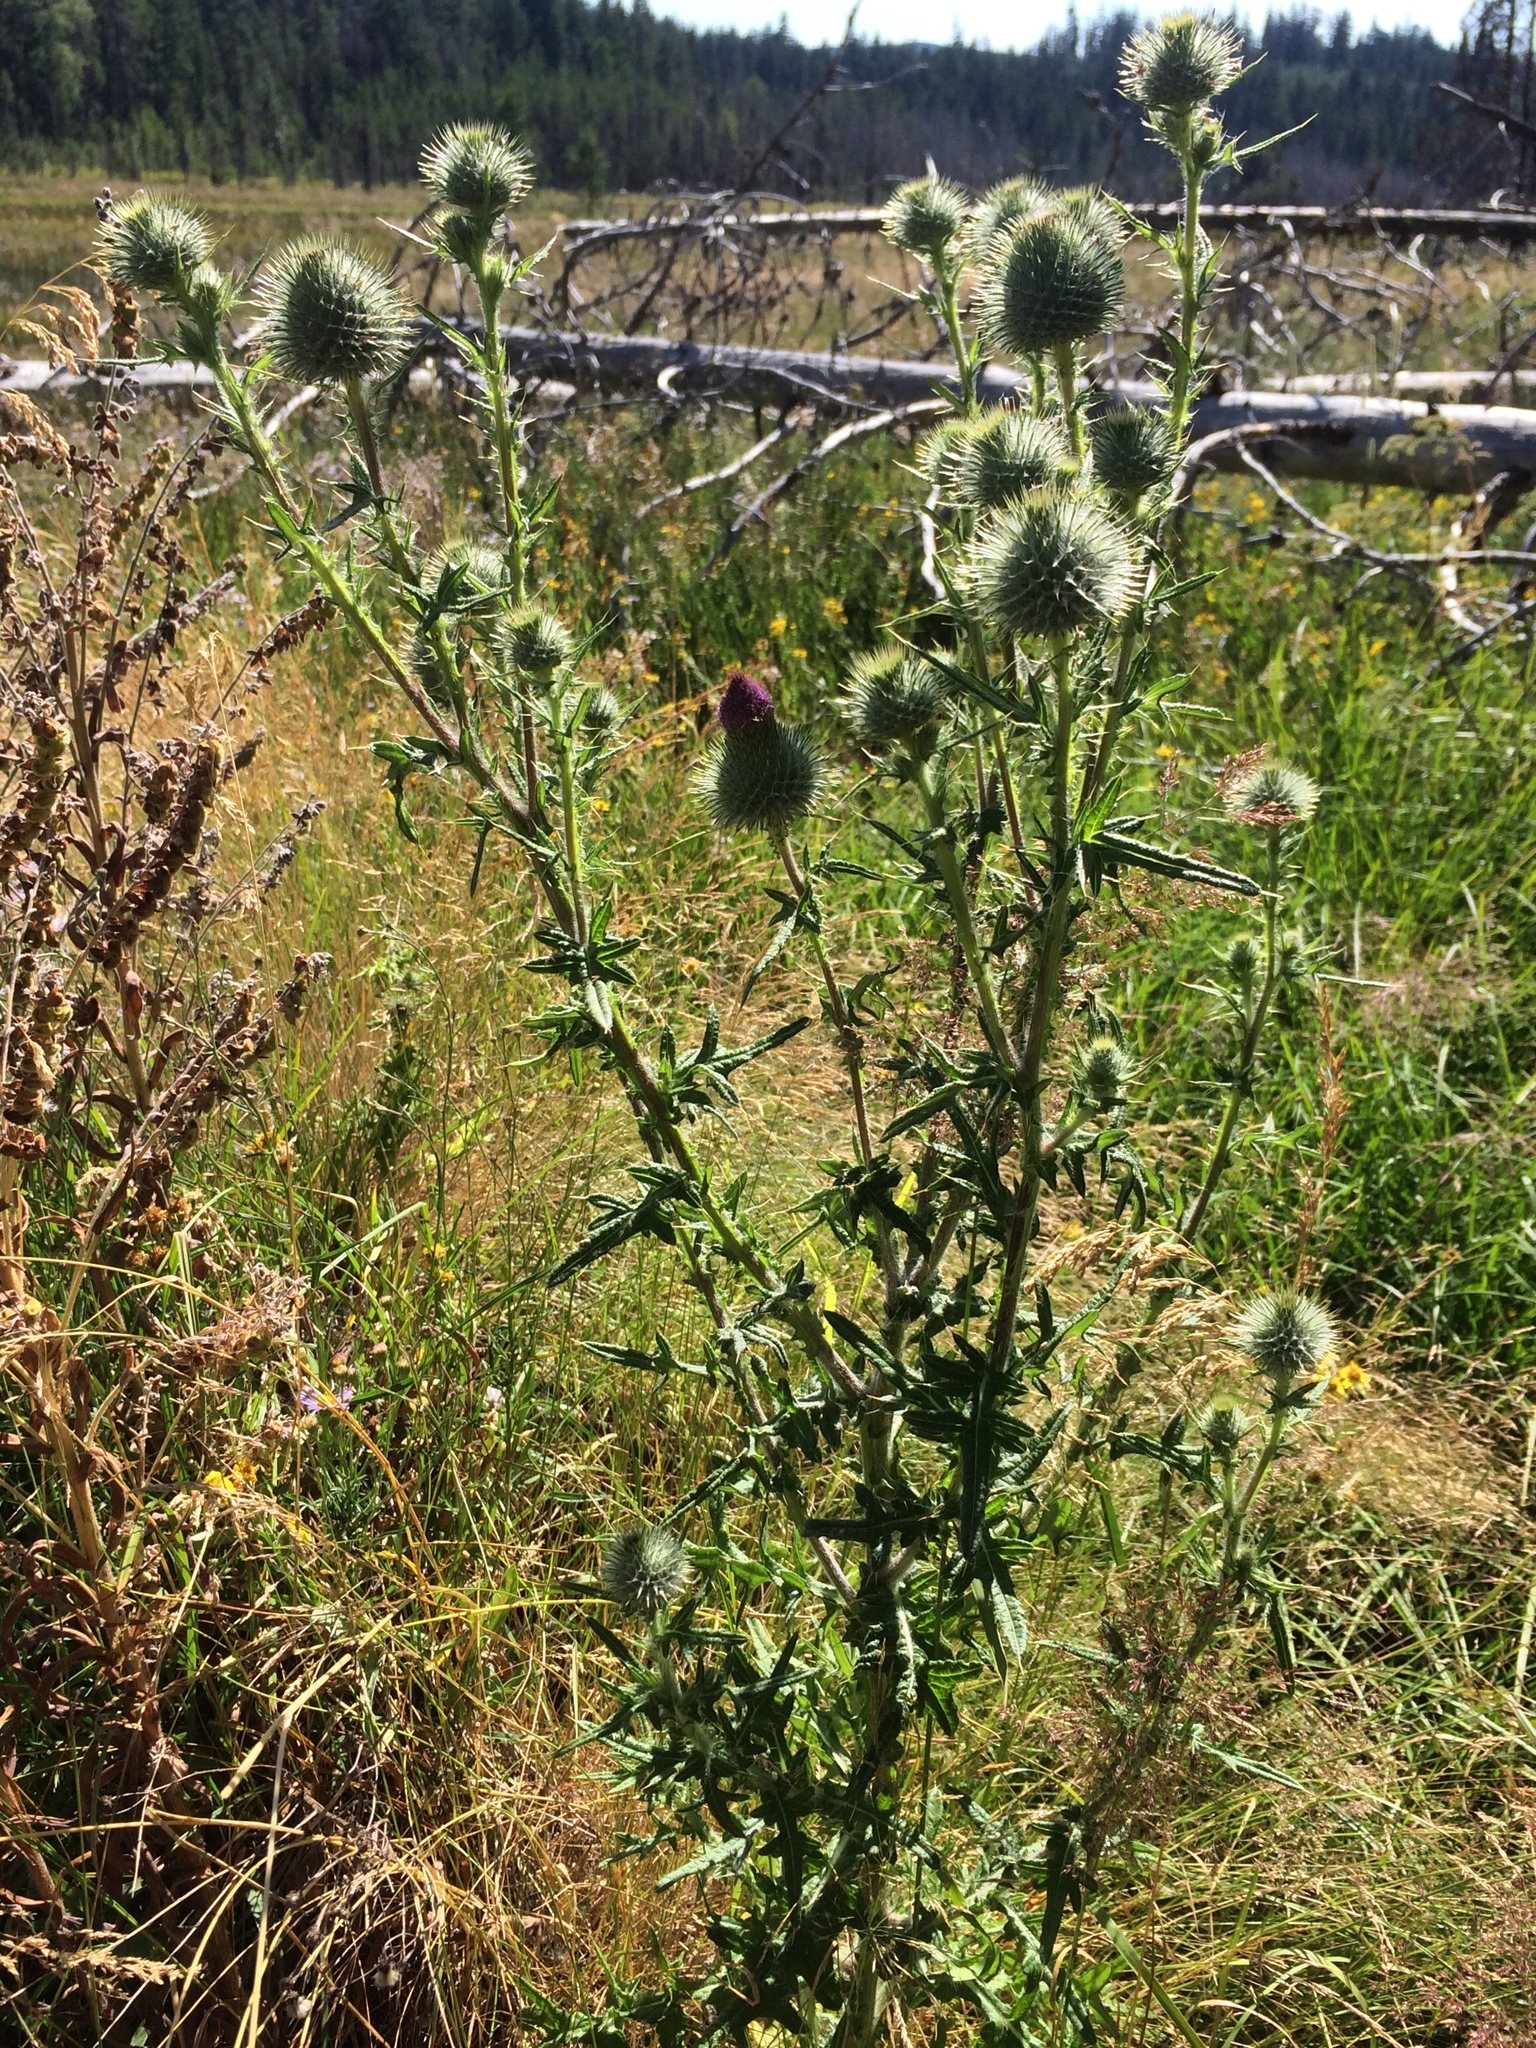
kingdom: Plantae
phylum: Tracheophyta
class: Magnoliopsida
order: Asterales
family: Asteraceae
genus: Cirsium
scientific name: Cirsium vulgare
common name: Bull thistle
